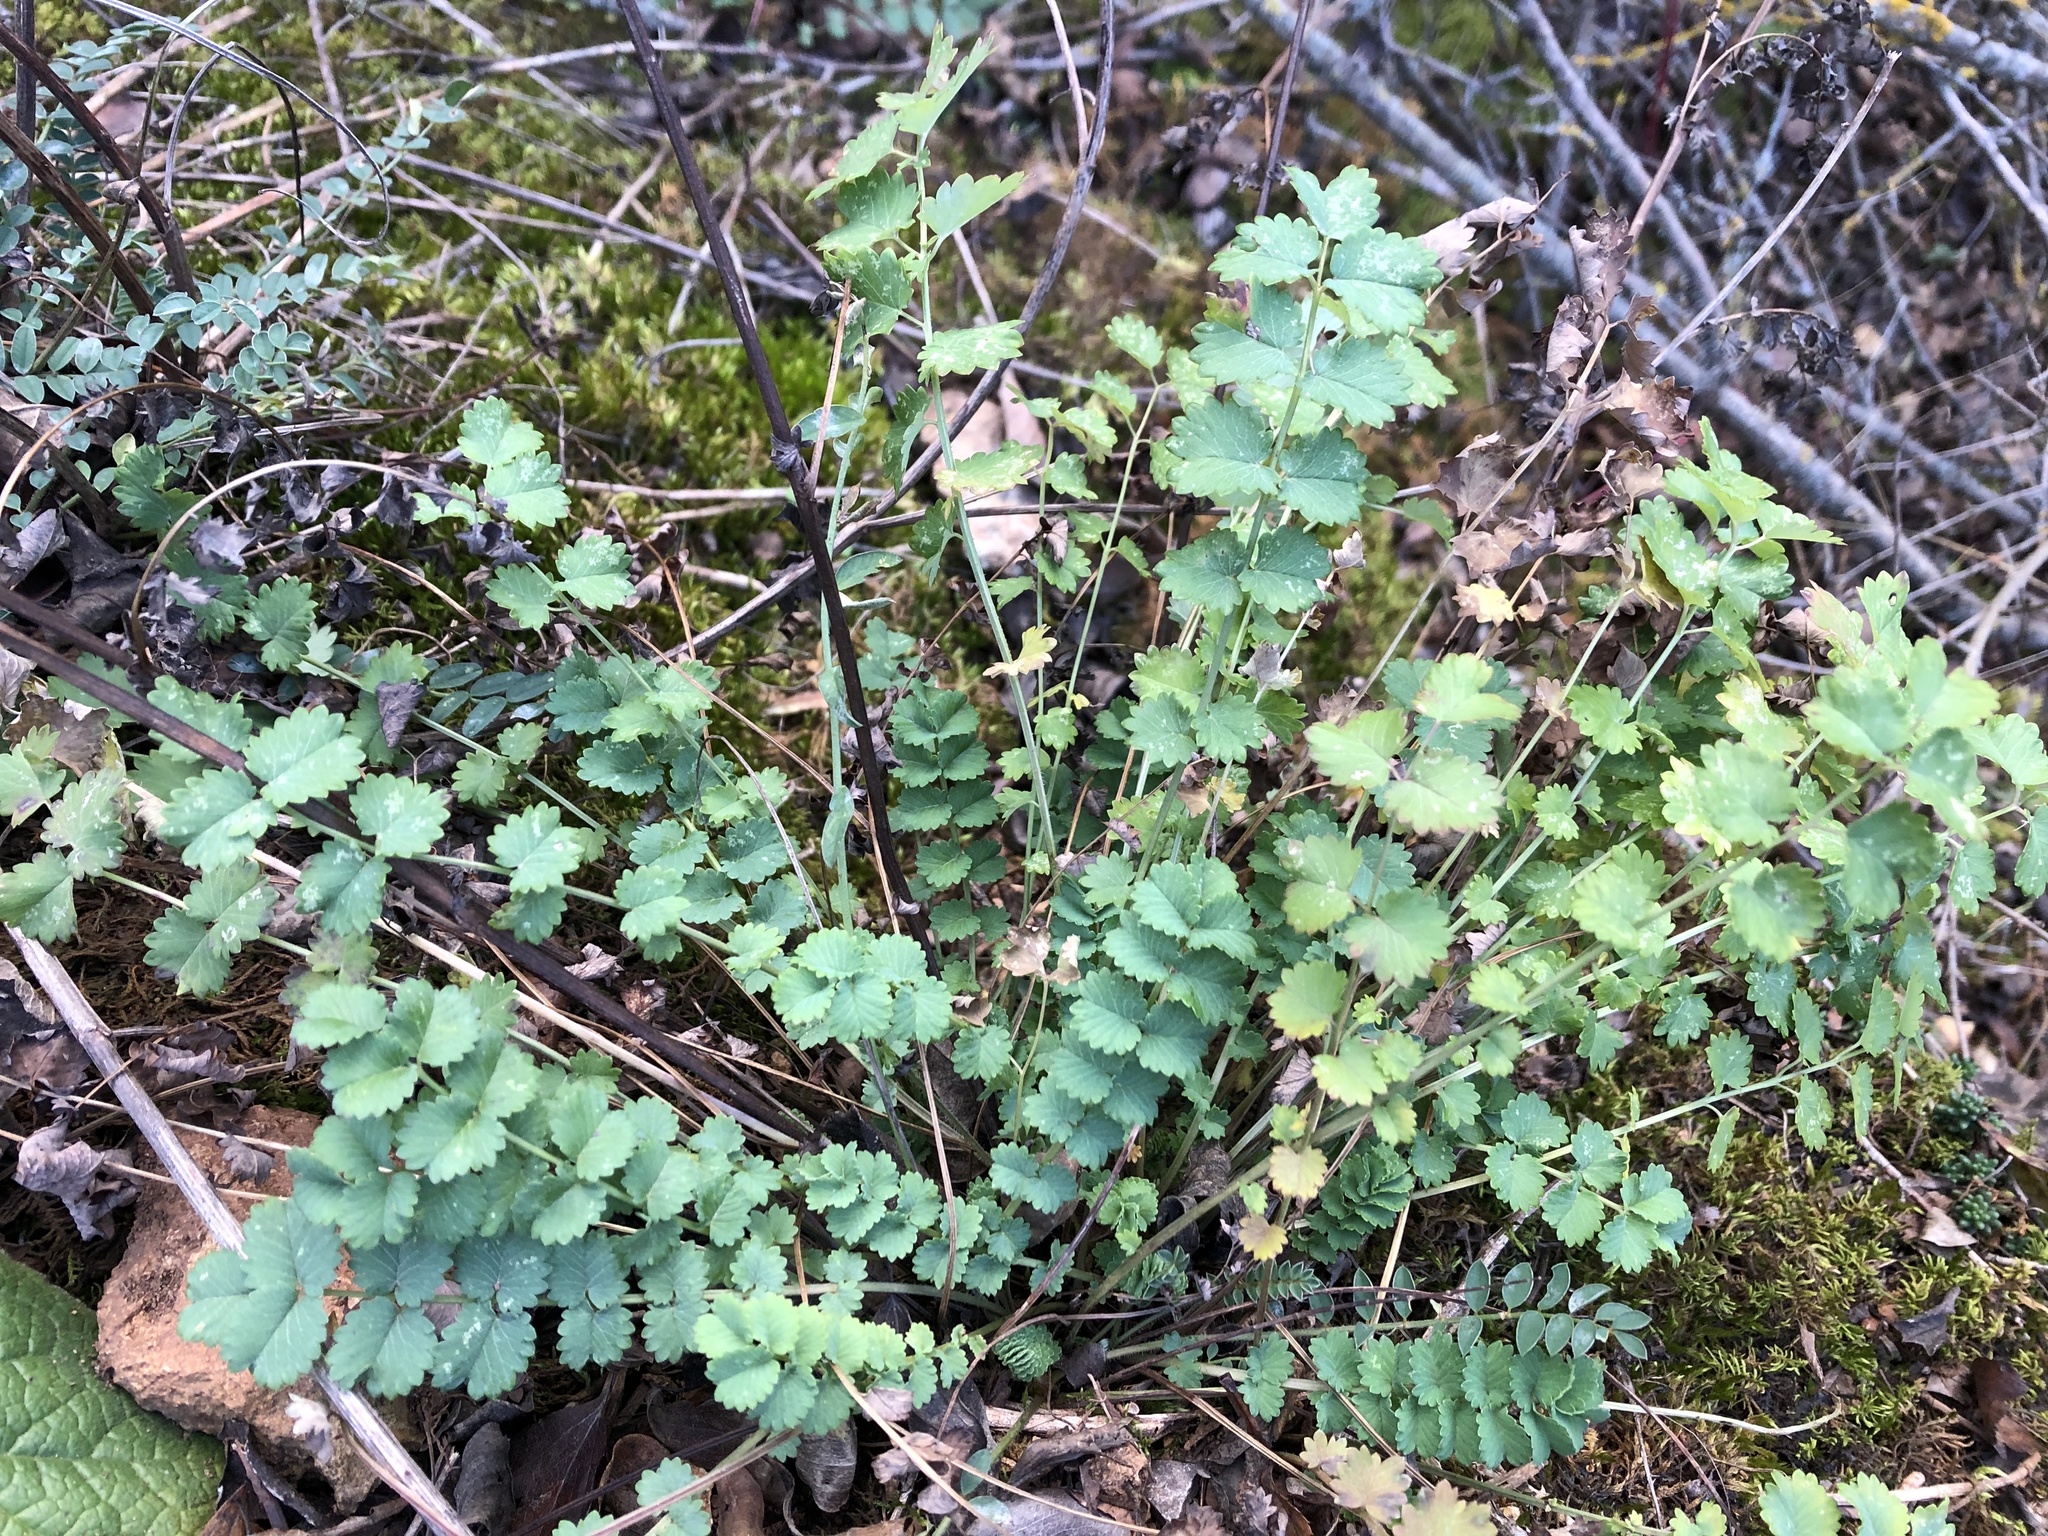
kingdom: Plantae
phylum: Tracheophyta
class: Magnoliopsida
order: Rosales
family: Rosaceae
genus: Poterium
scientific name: Poterium sanguisorba
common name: Salad burnet
